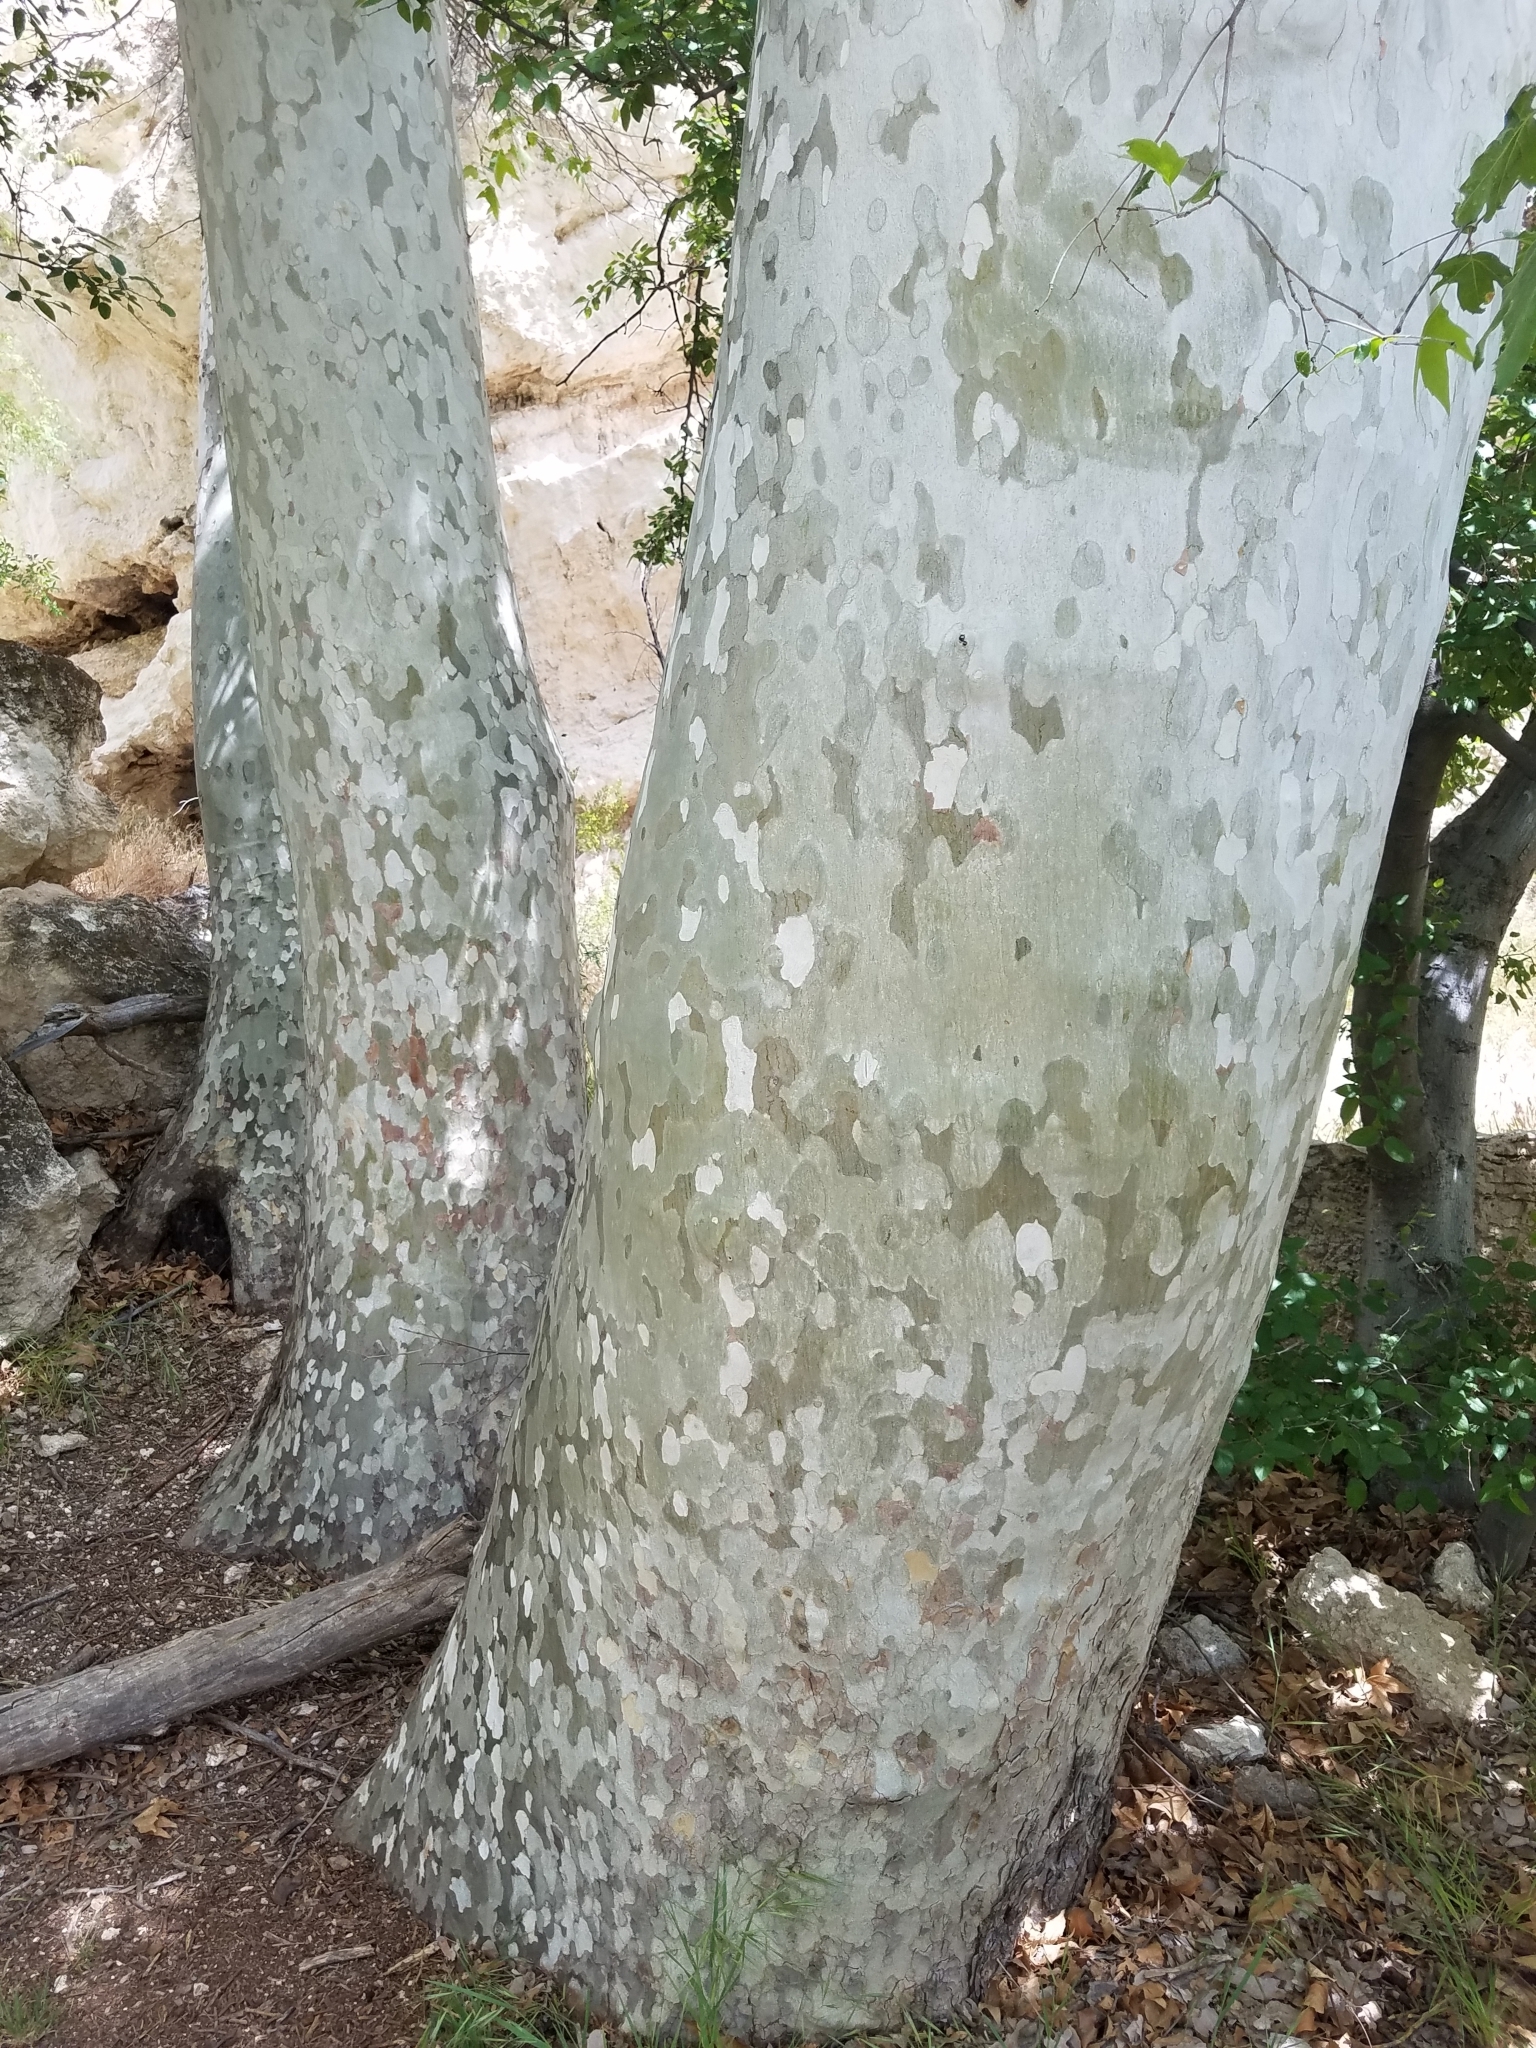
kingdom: Plantae
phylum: Tracheophyta
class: Magnoliopsida
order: Proteales
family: Platanaceae
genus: Platanus
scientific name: Platanus wrightii
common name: Arizona sycamore
